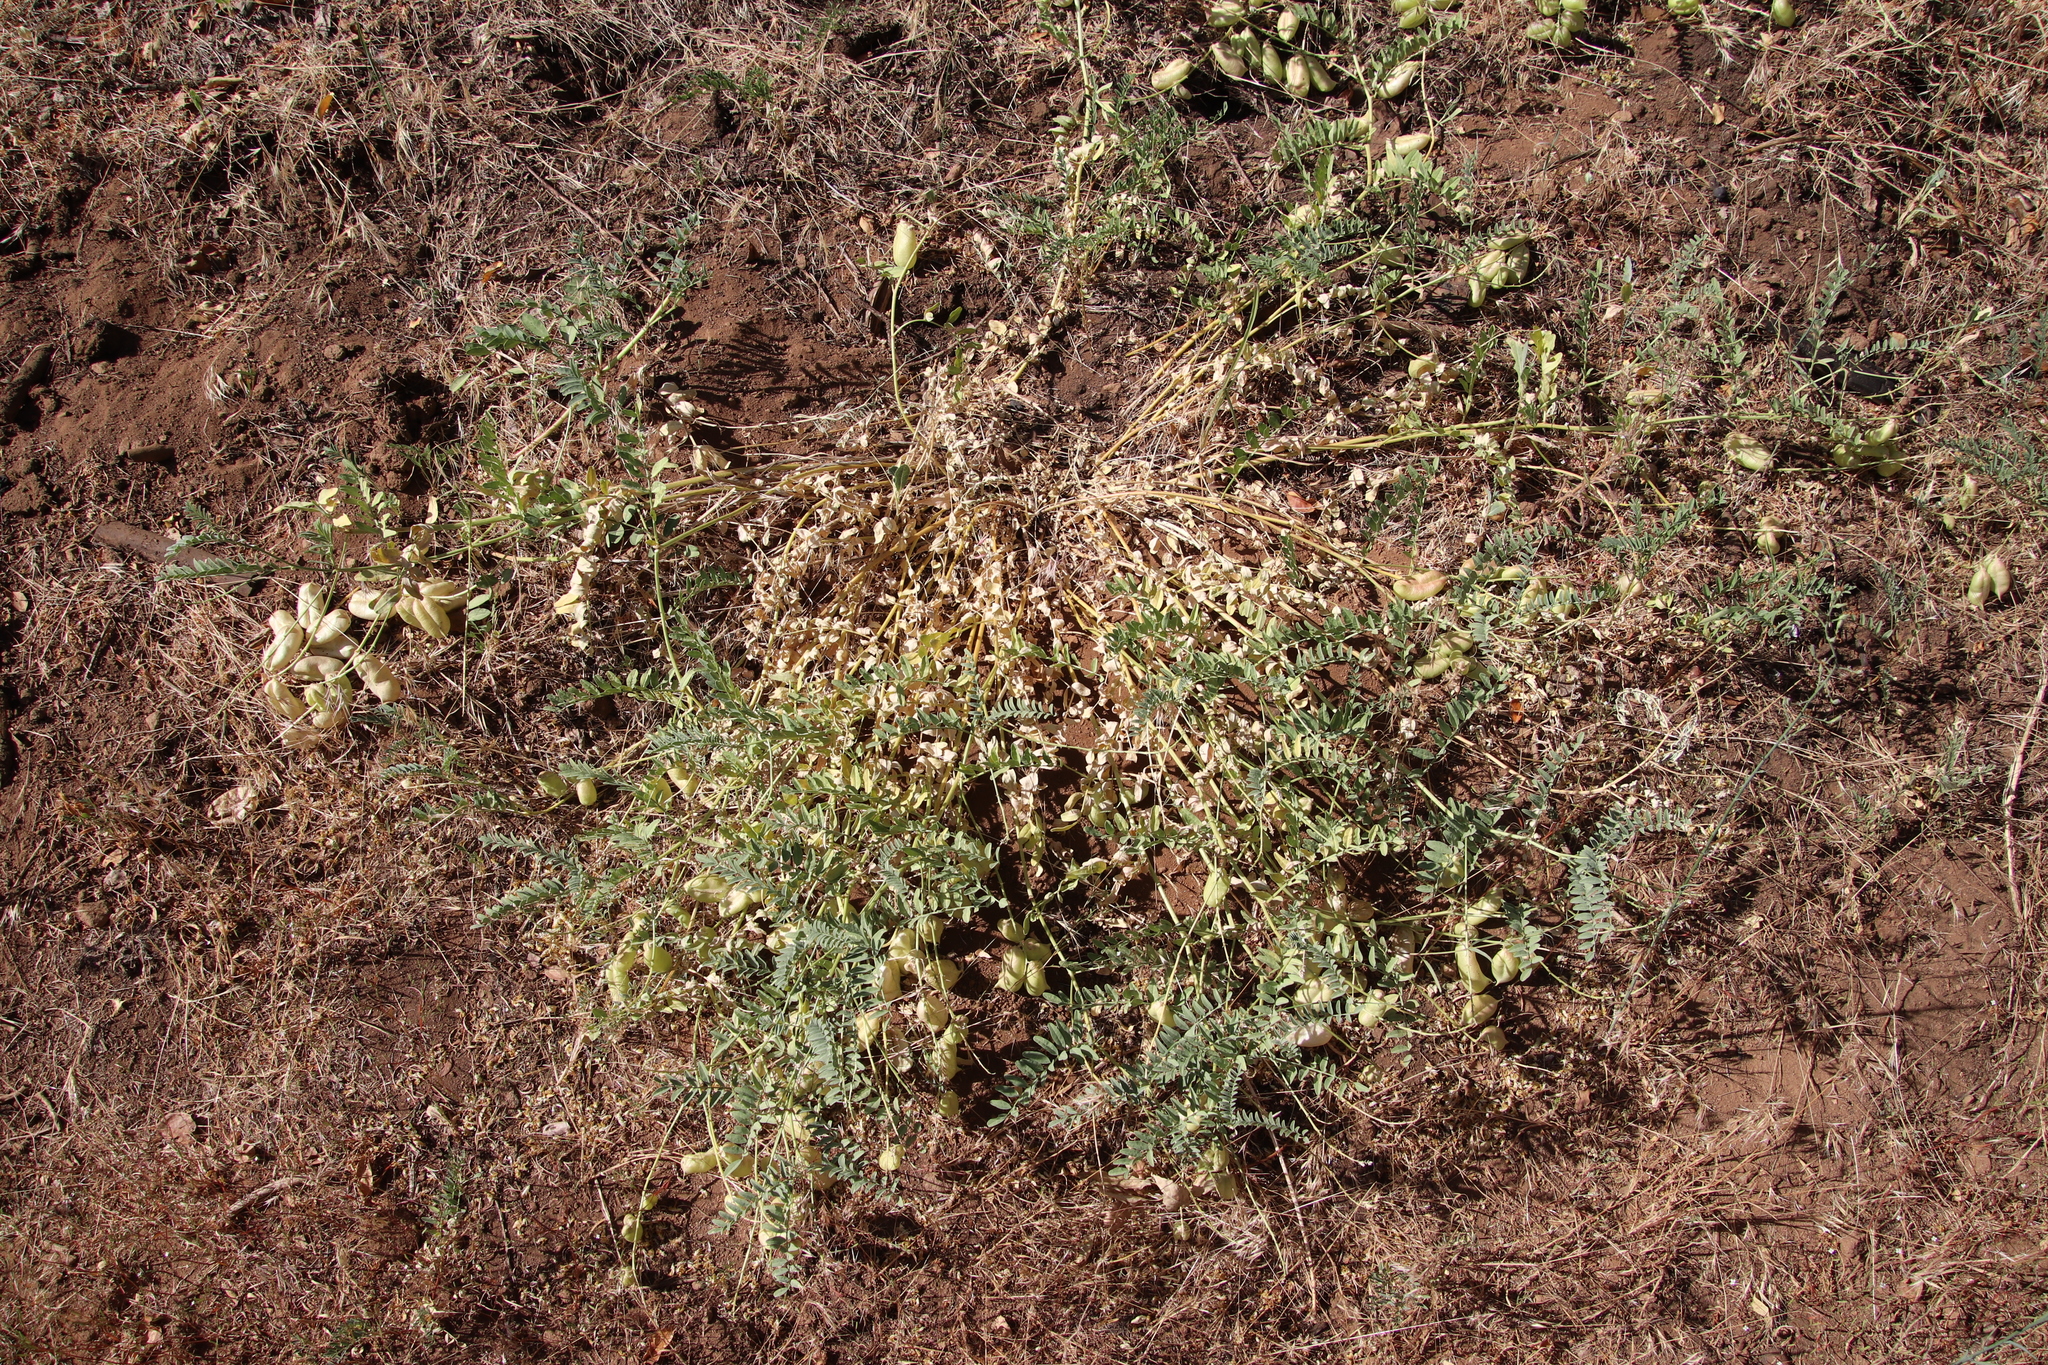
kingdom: Plantae
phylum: Tracheophyta
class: Magnoliopsida
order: Fabales
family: Fabaceae
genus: Astragalus
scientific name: Astragalus douglasii
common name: Jacumba milkvetch
